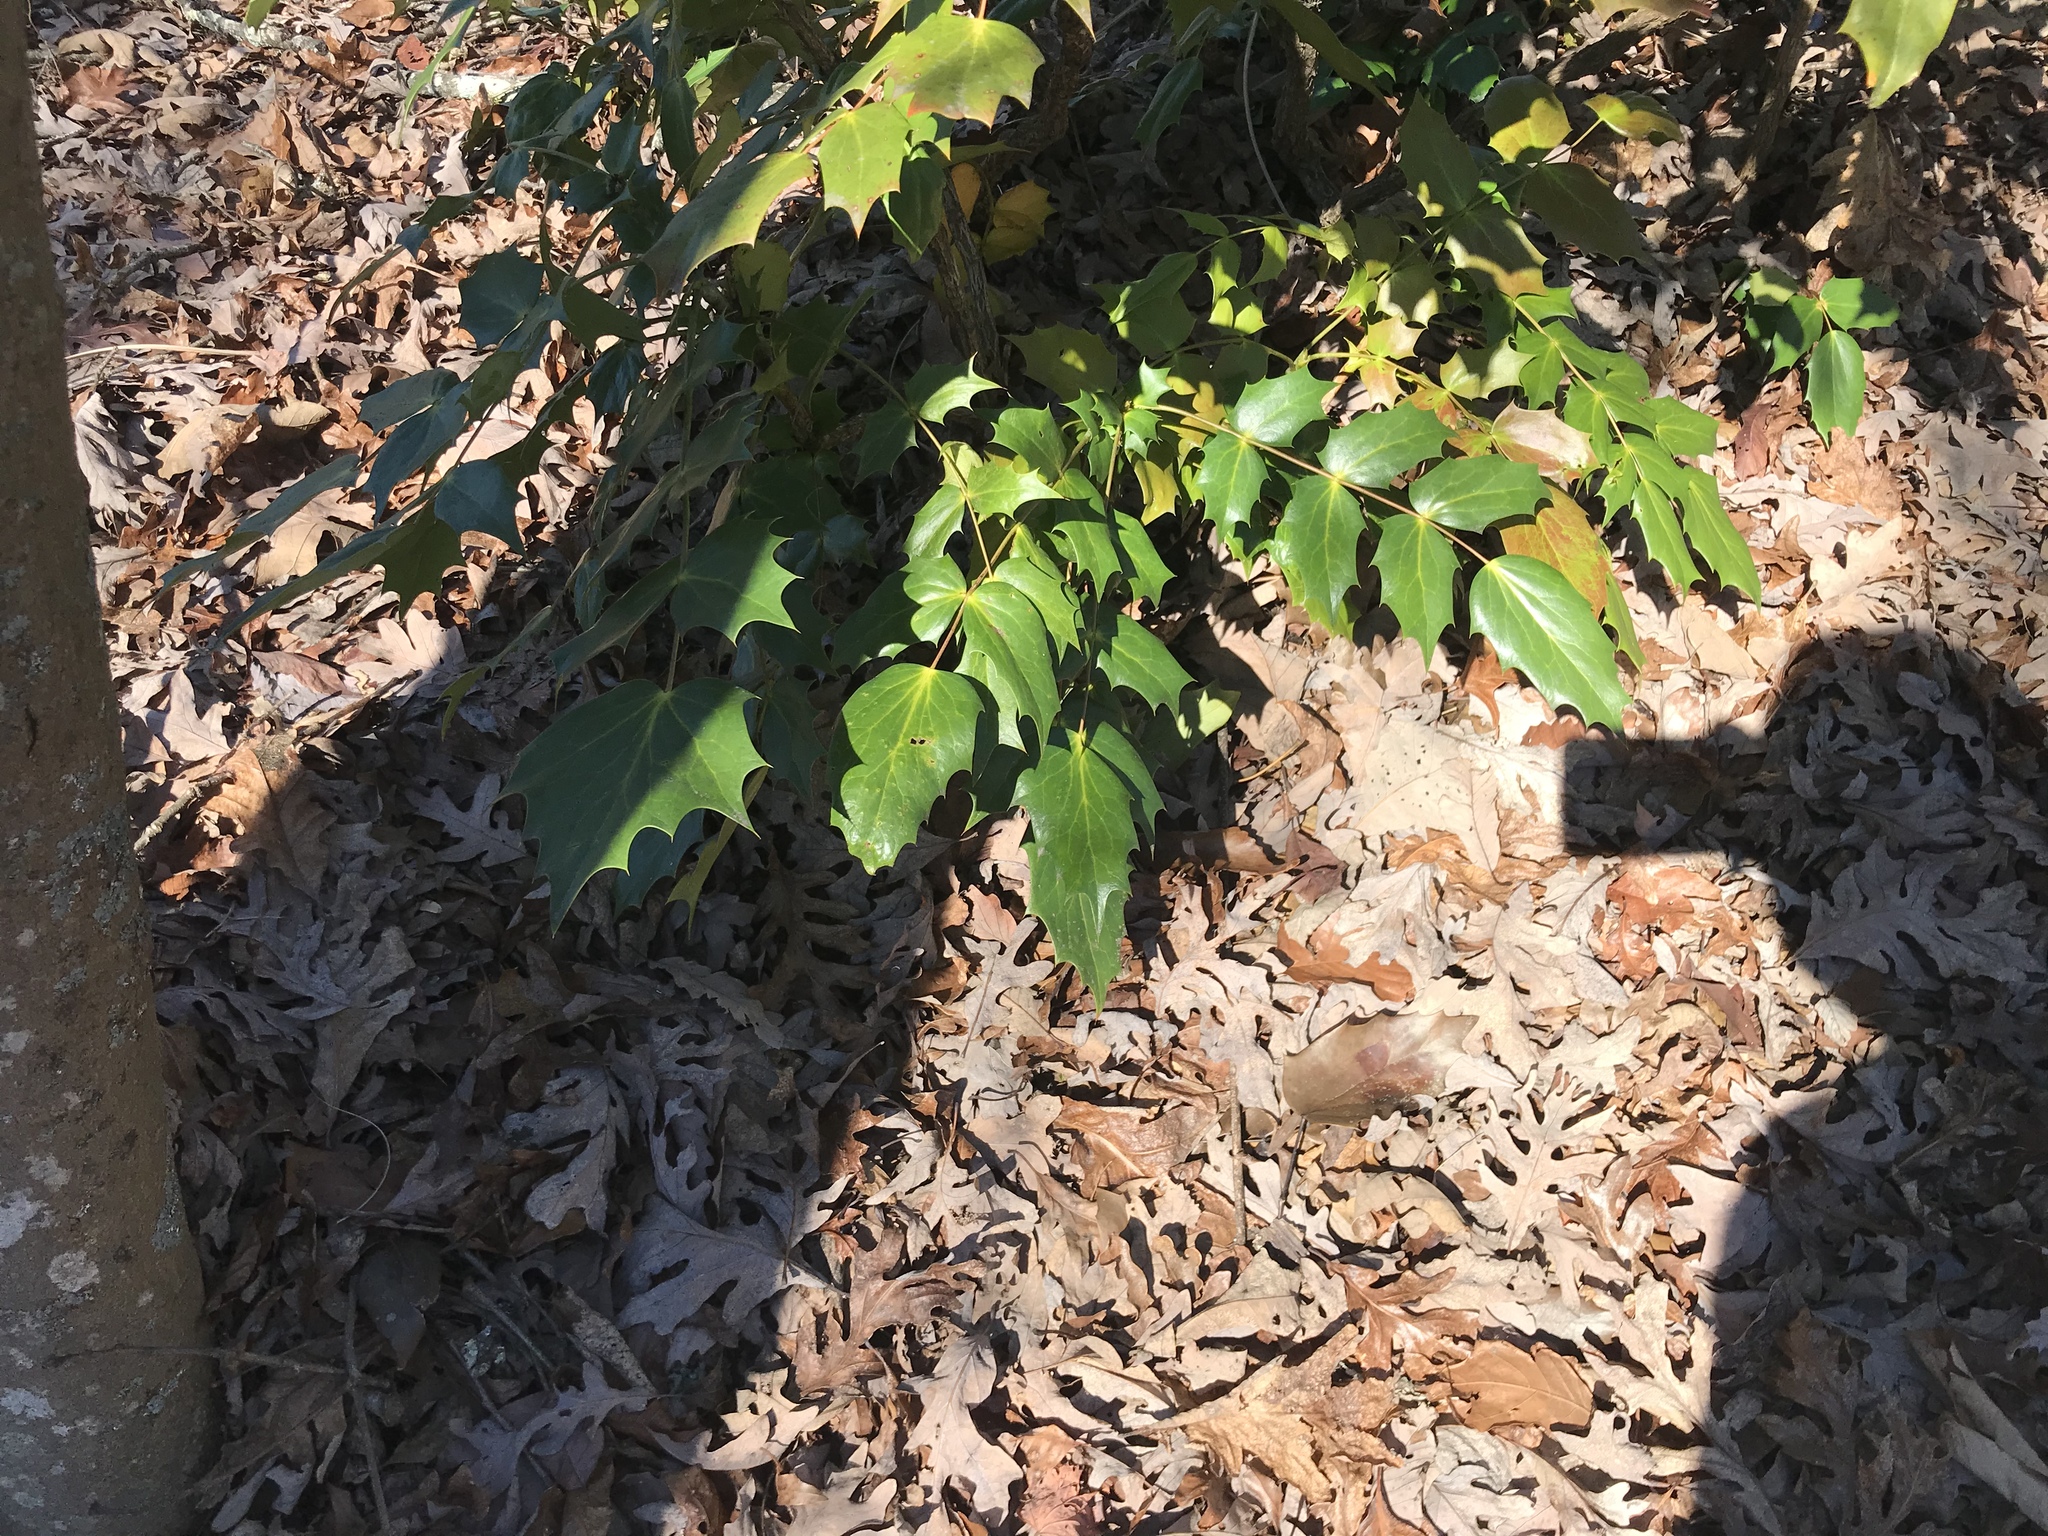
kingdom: Plantae
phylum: Tracheophyta
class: Magnoliopsida
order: Ranunculales
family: Berberidaceae
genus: Mahonia
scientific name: Mahonia bealei
